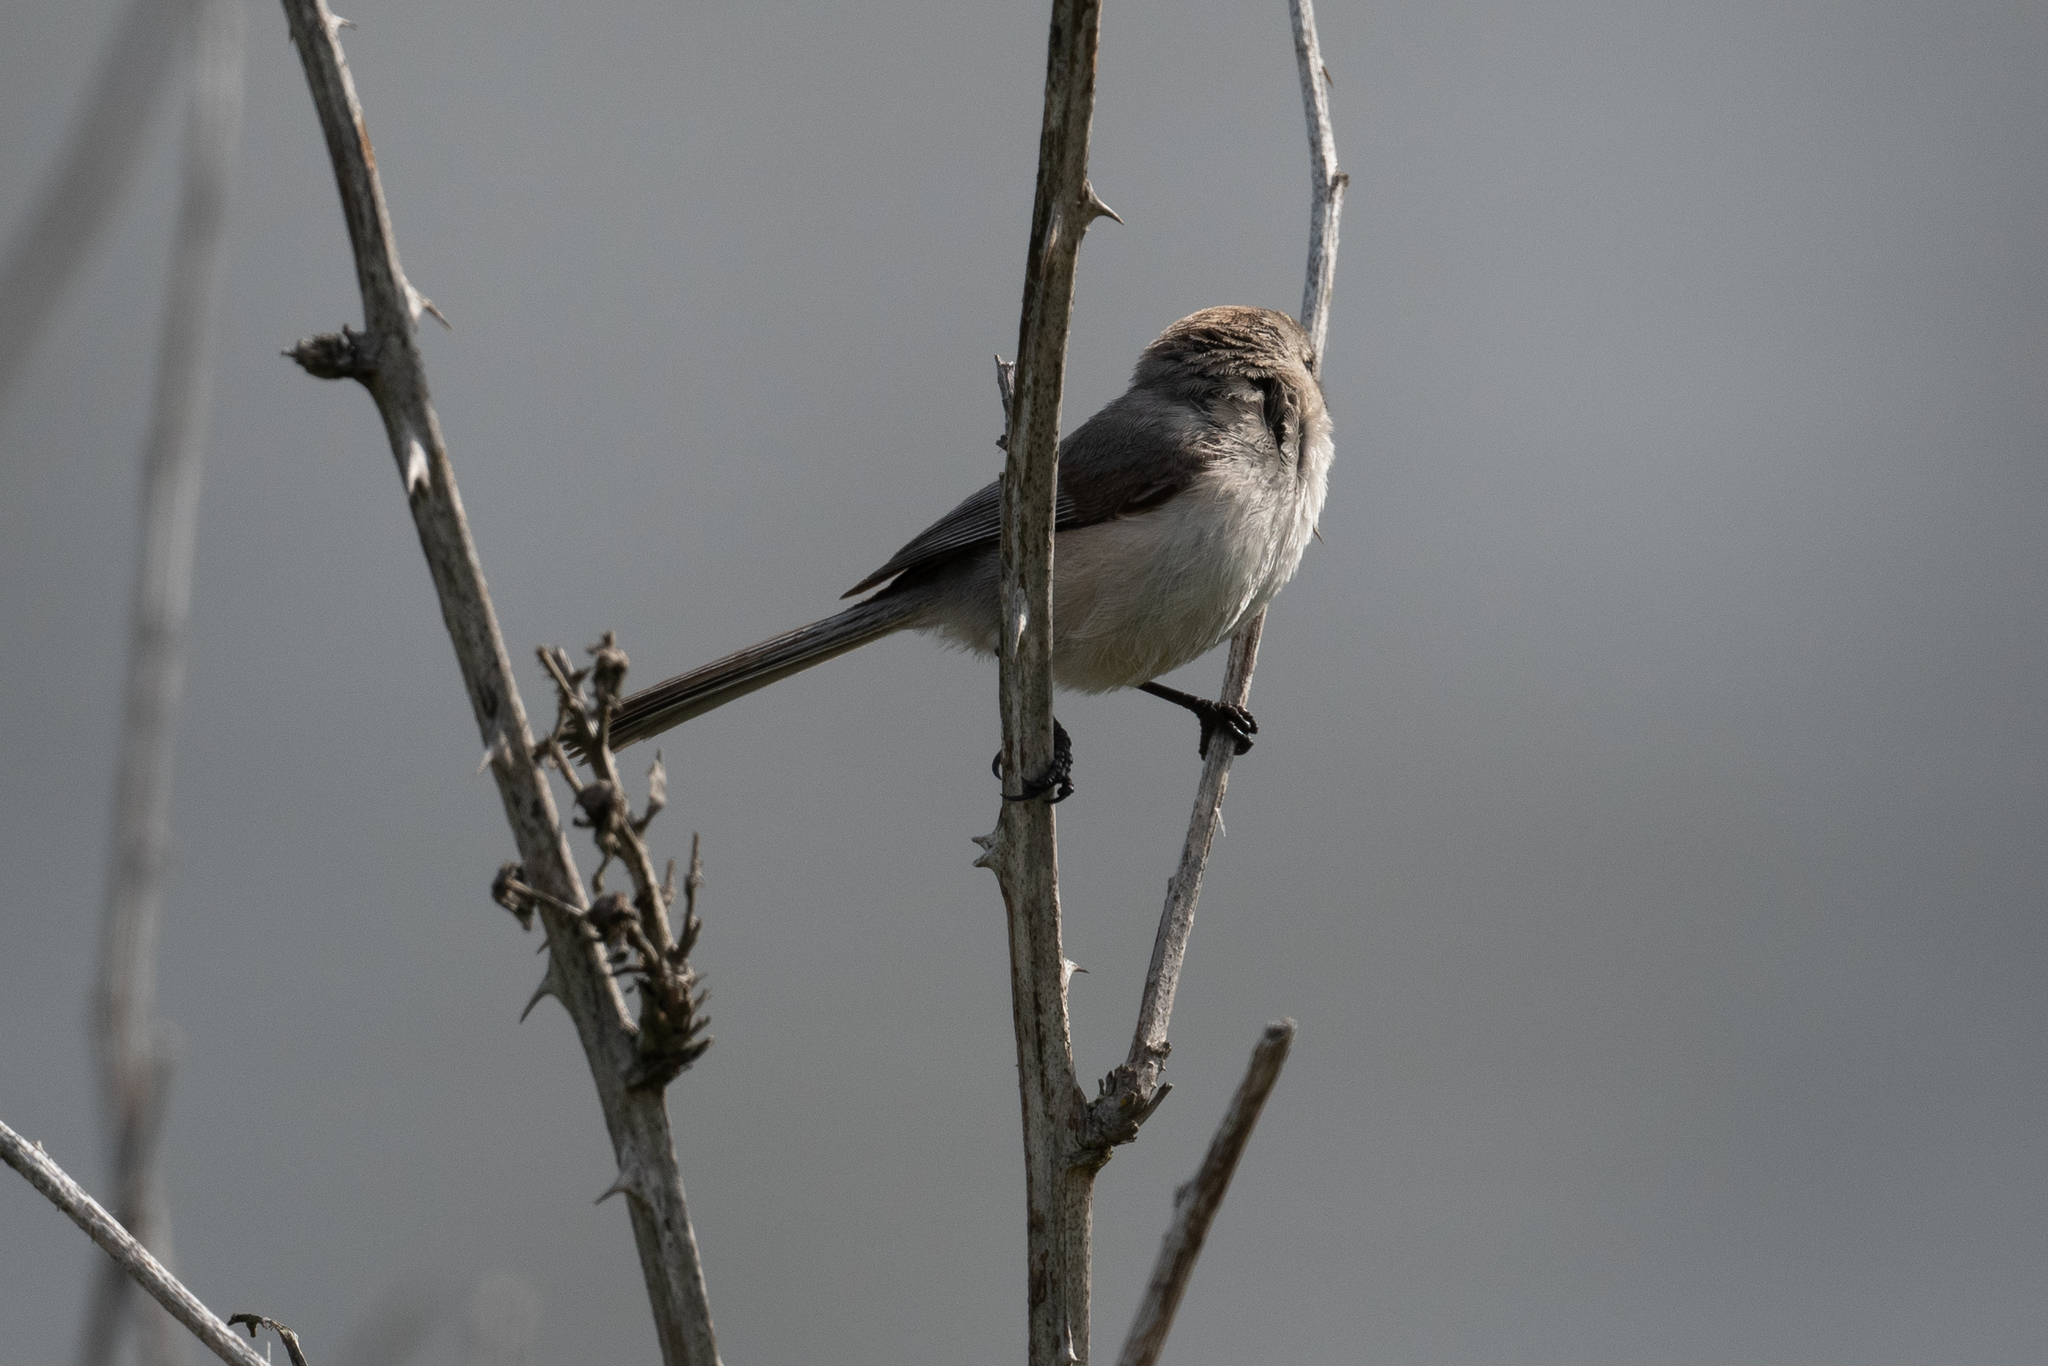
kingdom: Animalia
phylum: Chordata
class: Aves
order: Passeriformes
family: Aegithalidae
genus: Psaltriparus
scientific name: Psaltriparus minimus
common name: American bushtit
